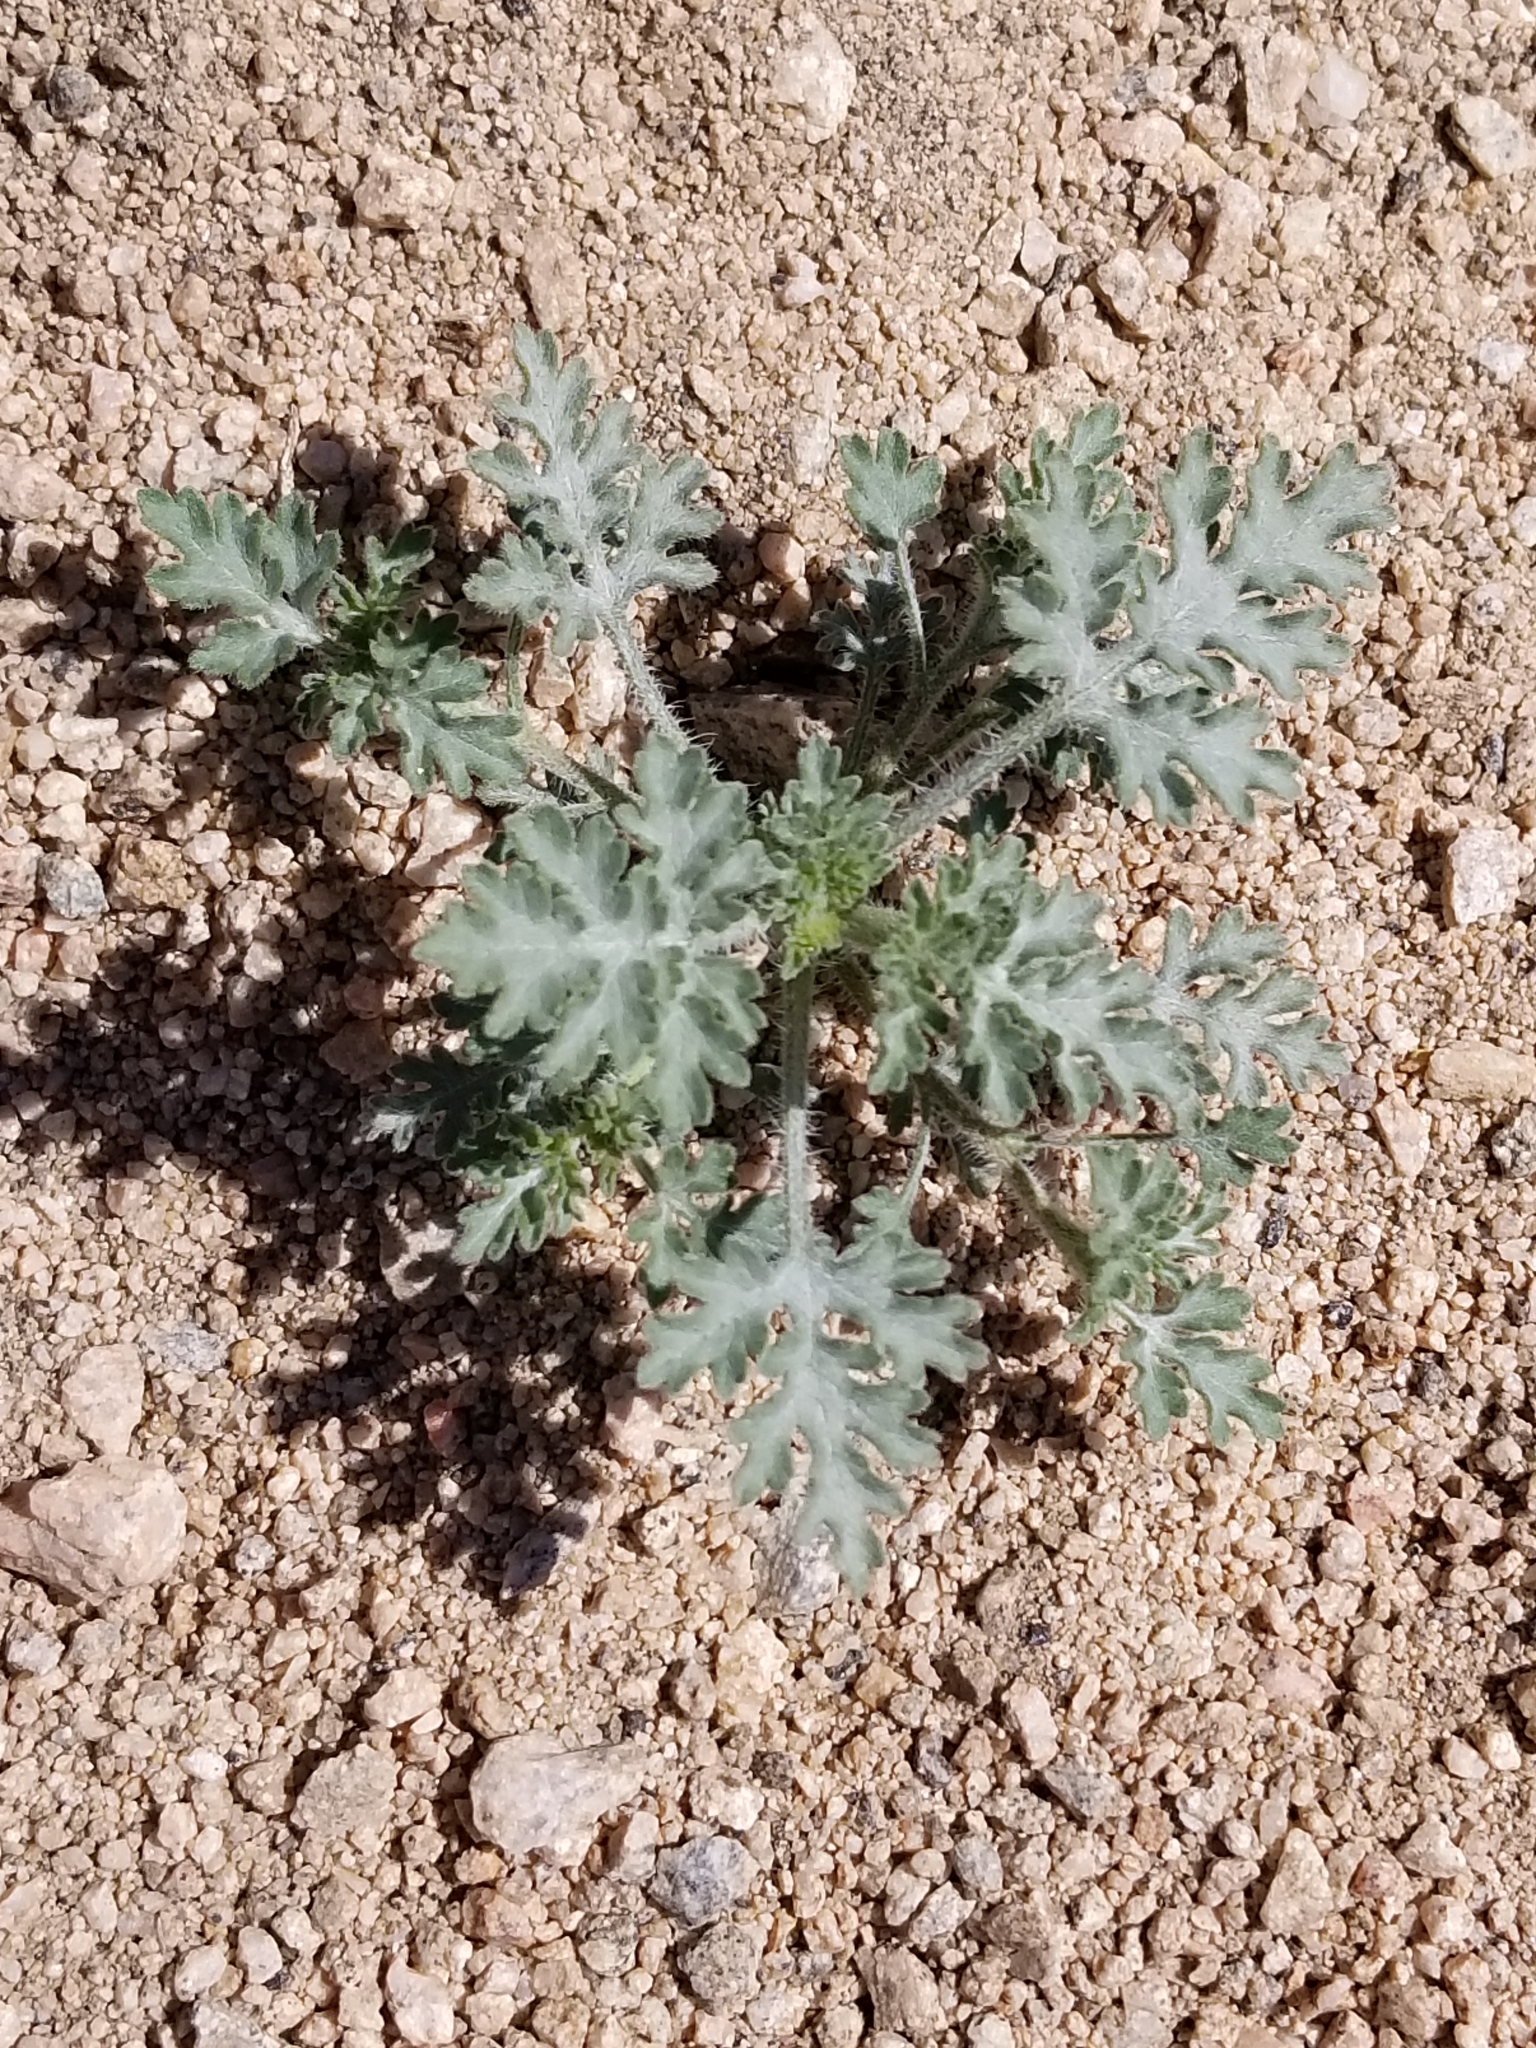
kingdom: Plantae
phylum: Tracheophyta
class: Magnoliopsida
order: Asterales
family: Asteraceae
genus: Ambrosia
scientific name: Ambrosia acanthicarpa
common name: Hooker's bur ragweed
